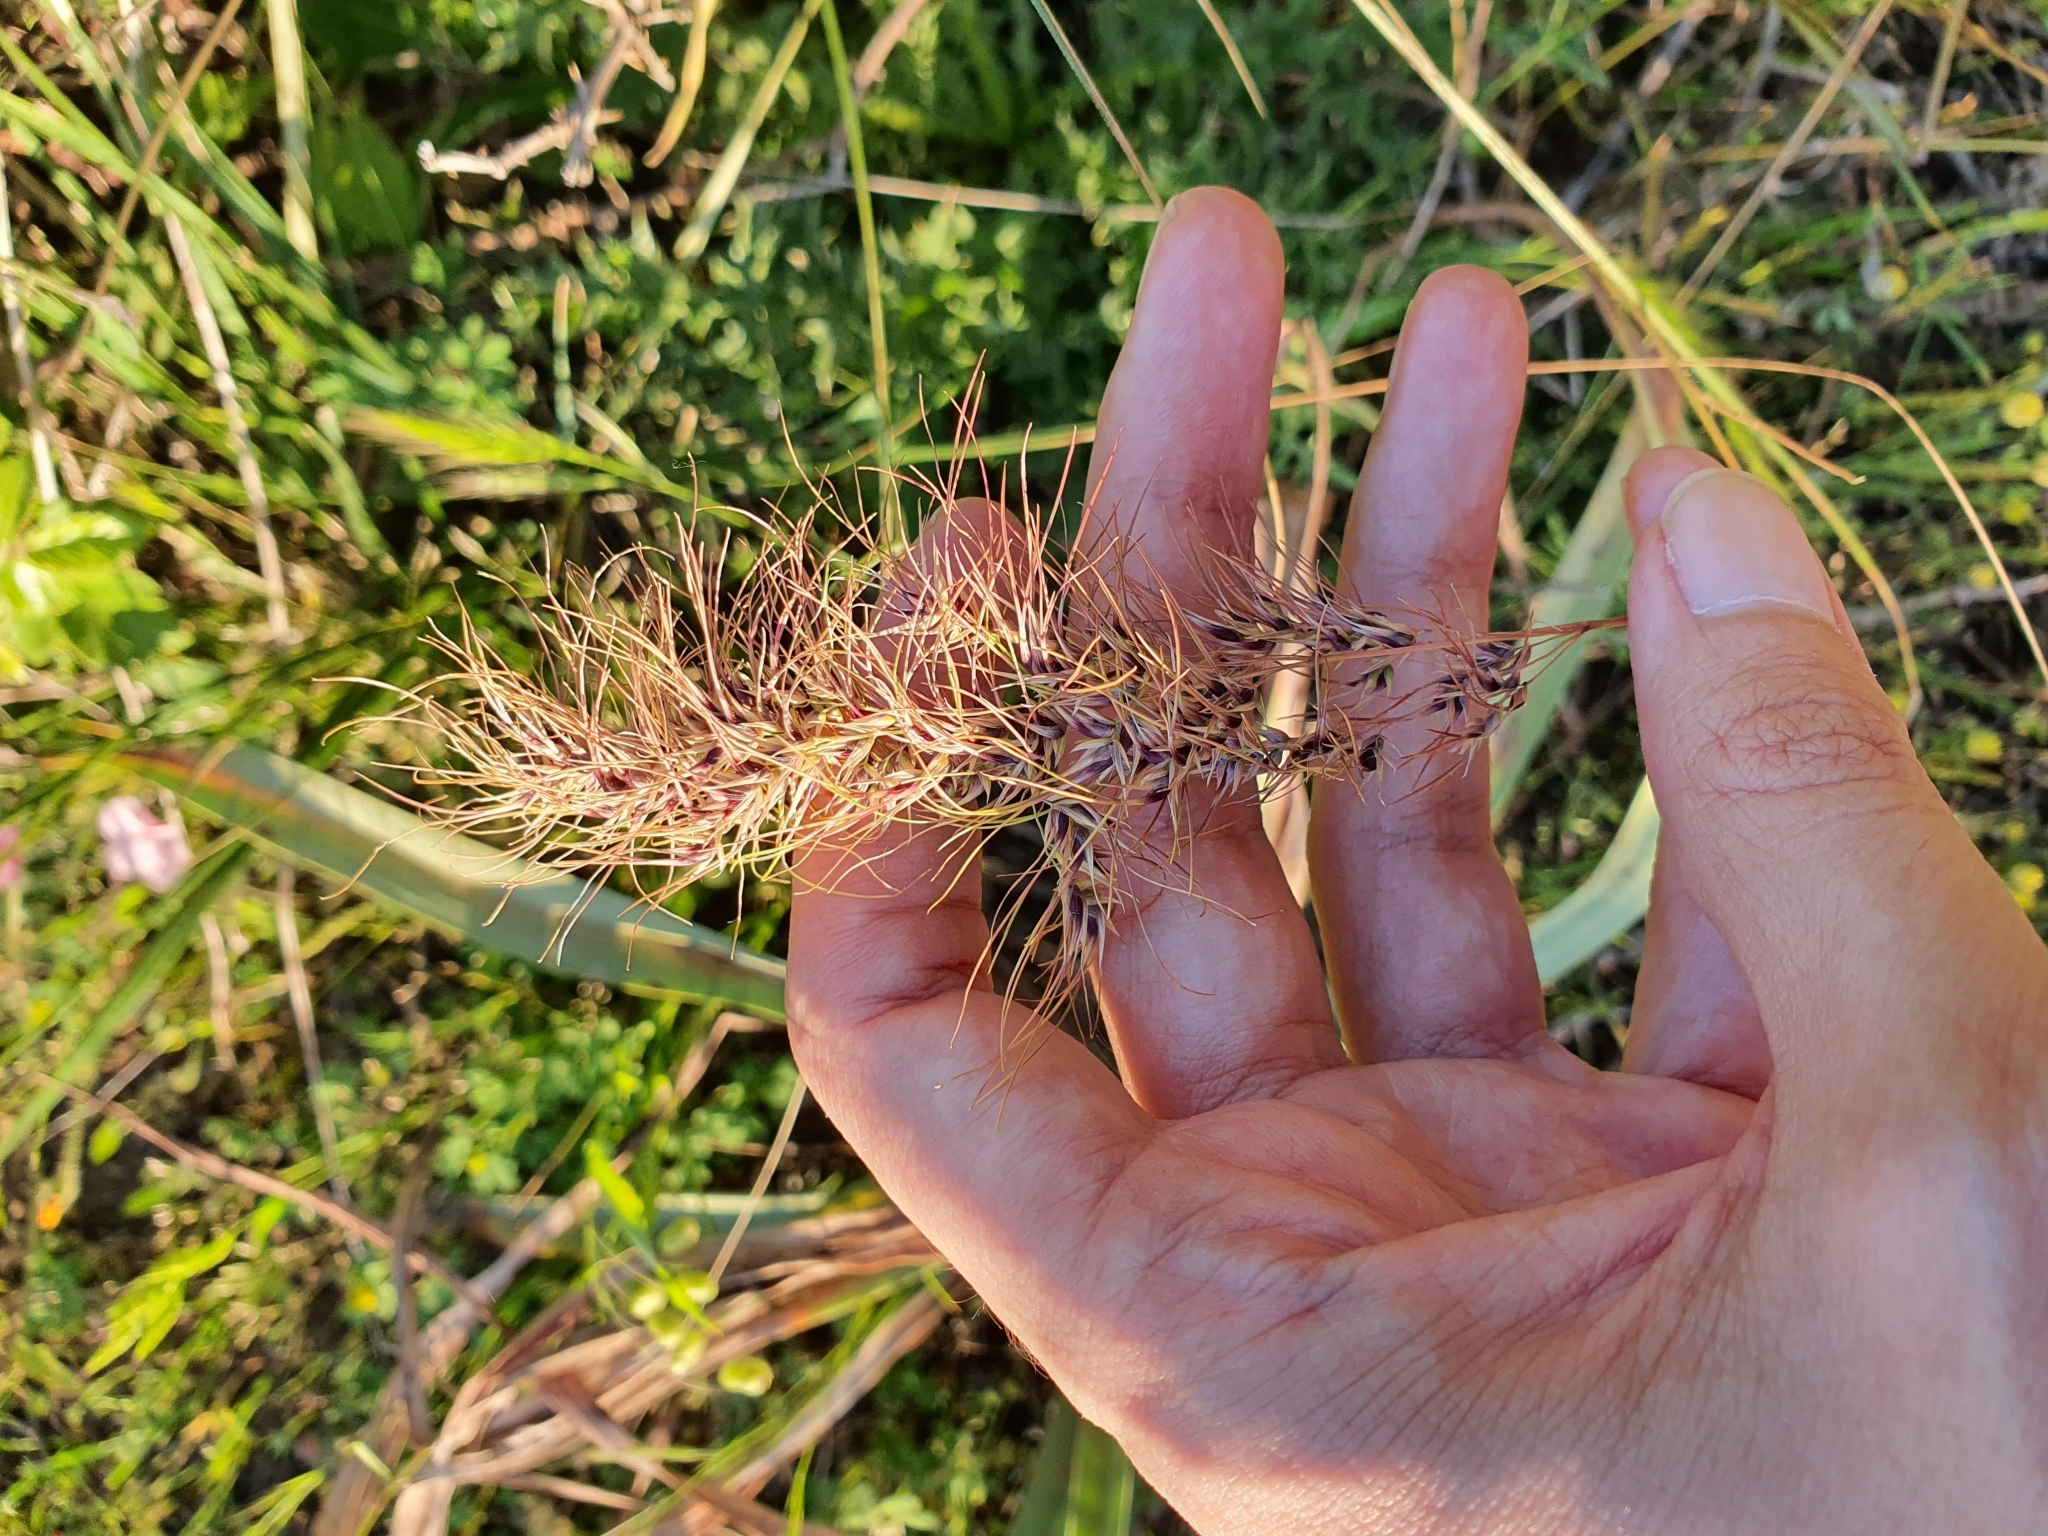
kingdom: Plantae
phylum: Tracheophyta
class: Liliopsida
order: Poales
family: Poaceae
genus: Poa
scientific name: Poa bulbosa
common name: Bulbous bluegrass
